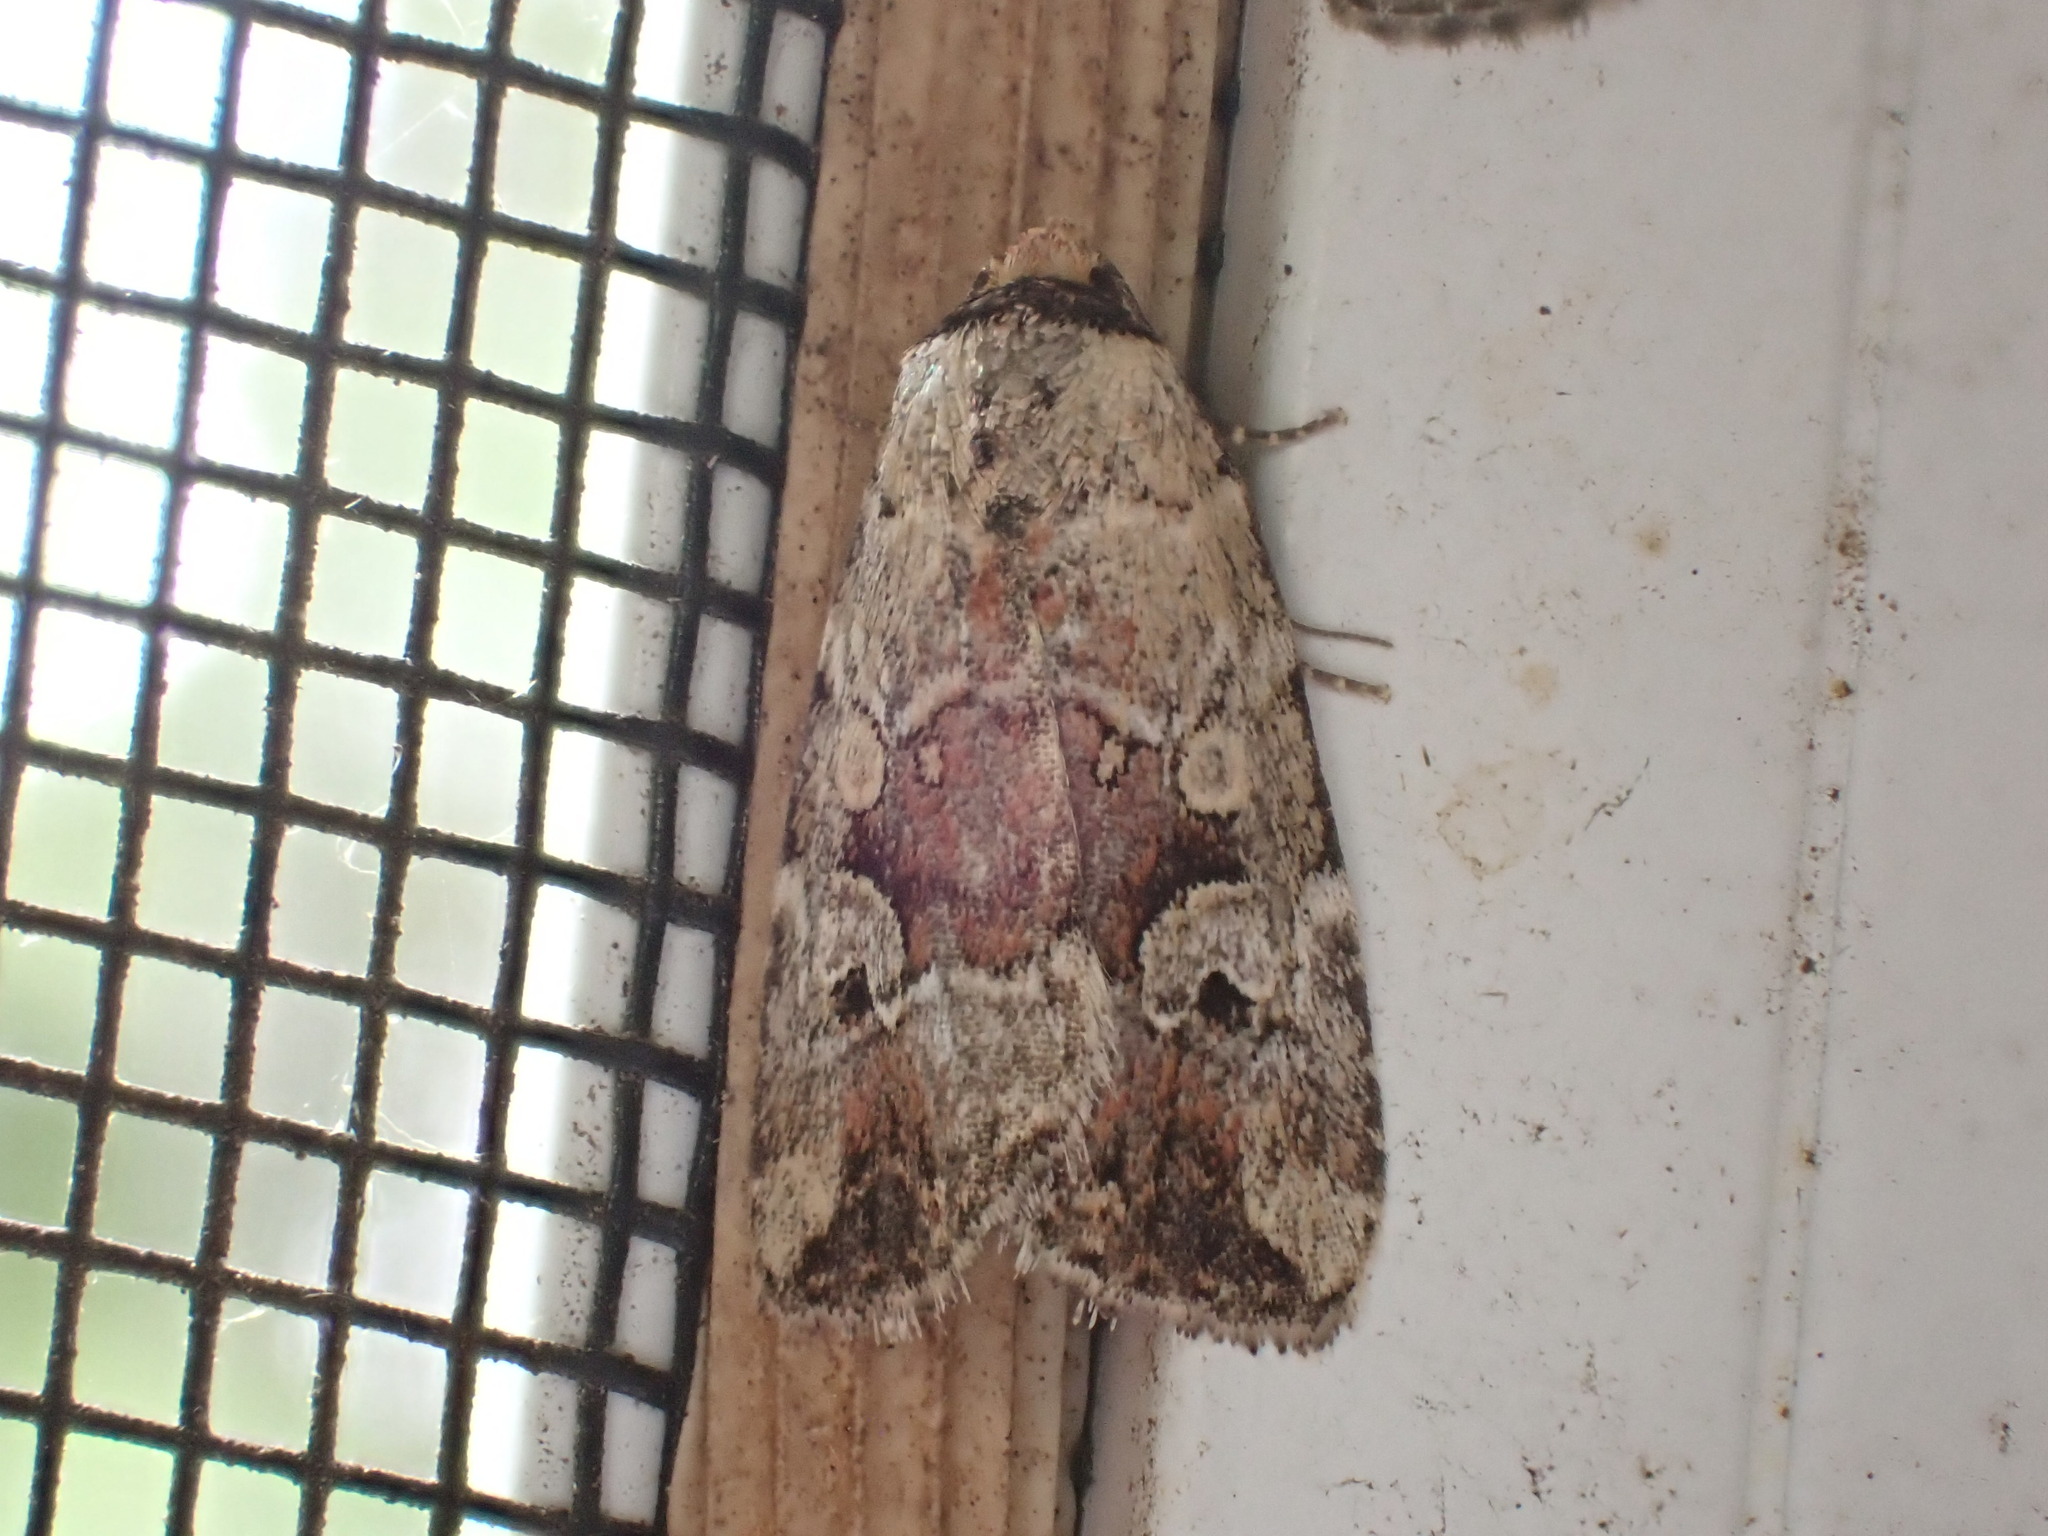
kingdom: Animalia
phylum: Arthropoda
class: Insecta
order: Lepidoptera
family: Noctuidae
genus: Elaphria
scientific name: Elaphria alapallida
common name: Pale-winged midget
